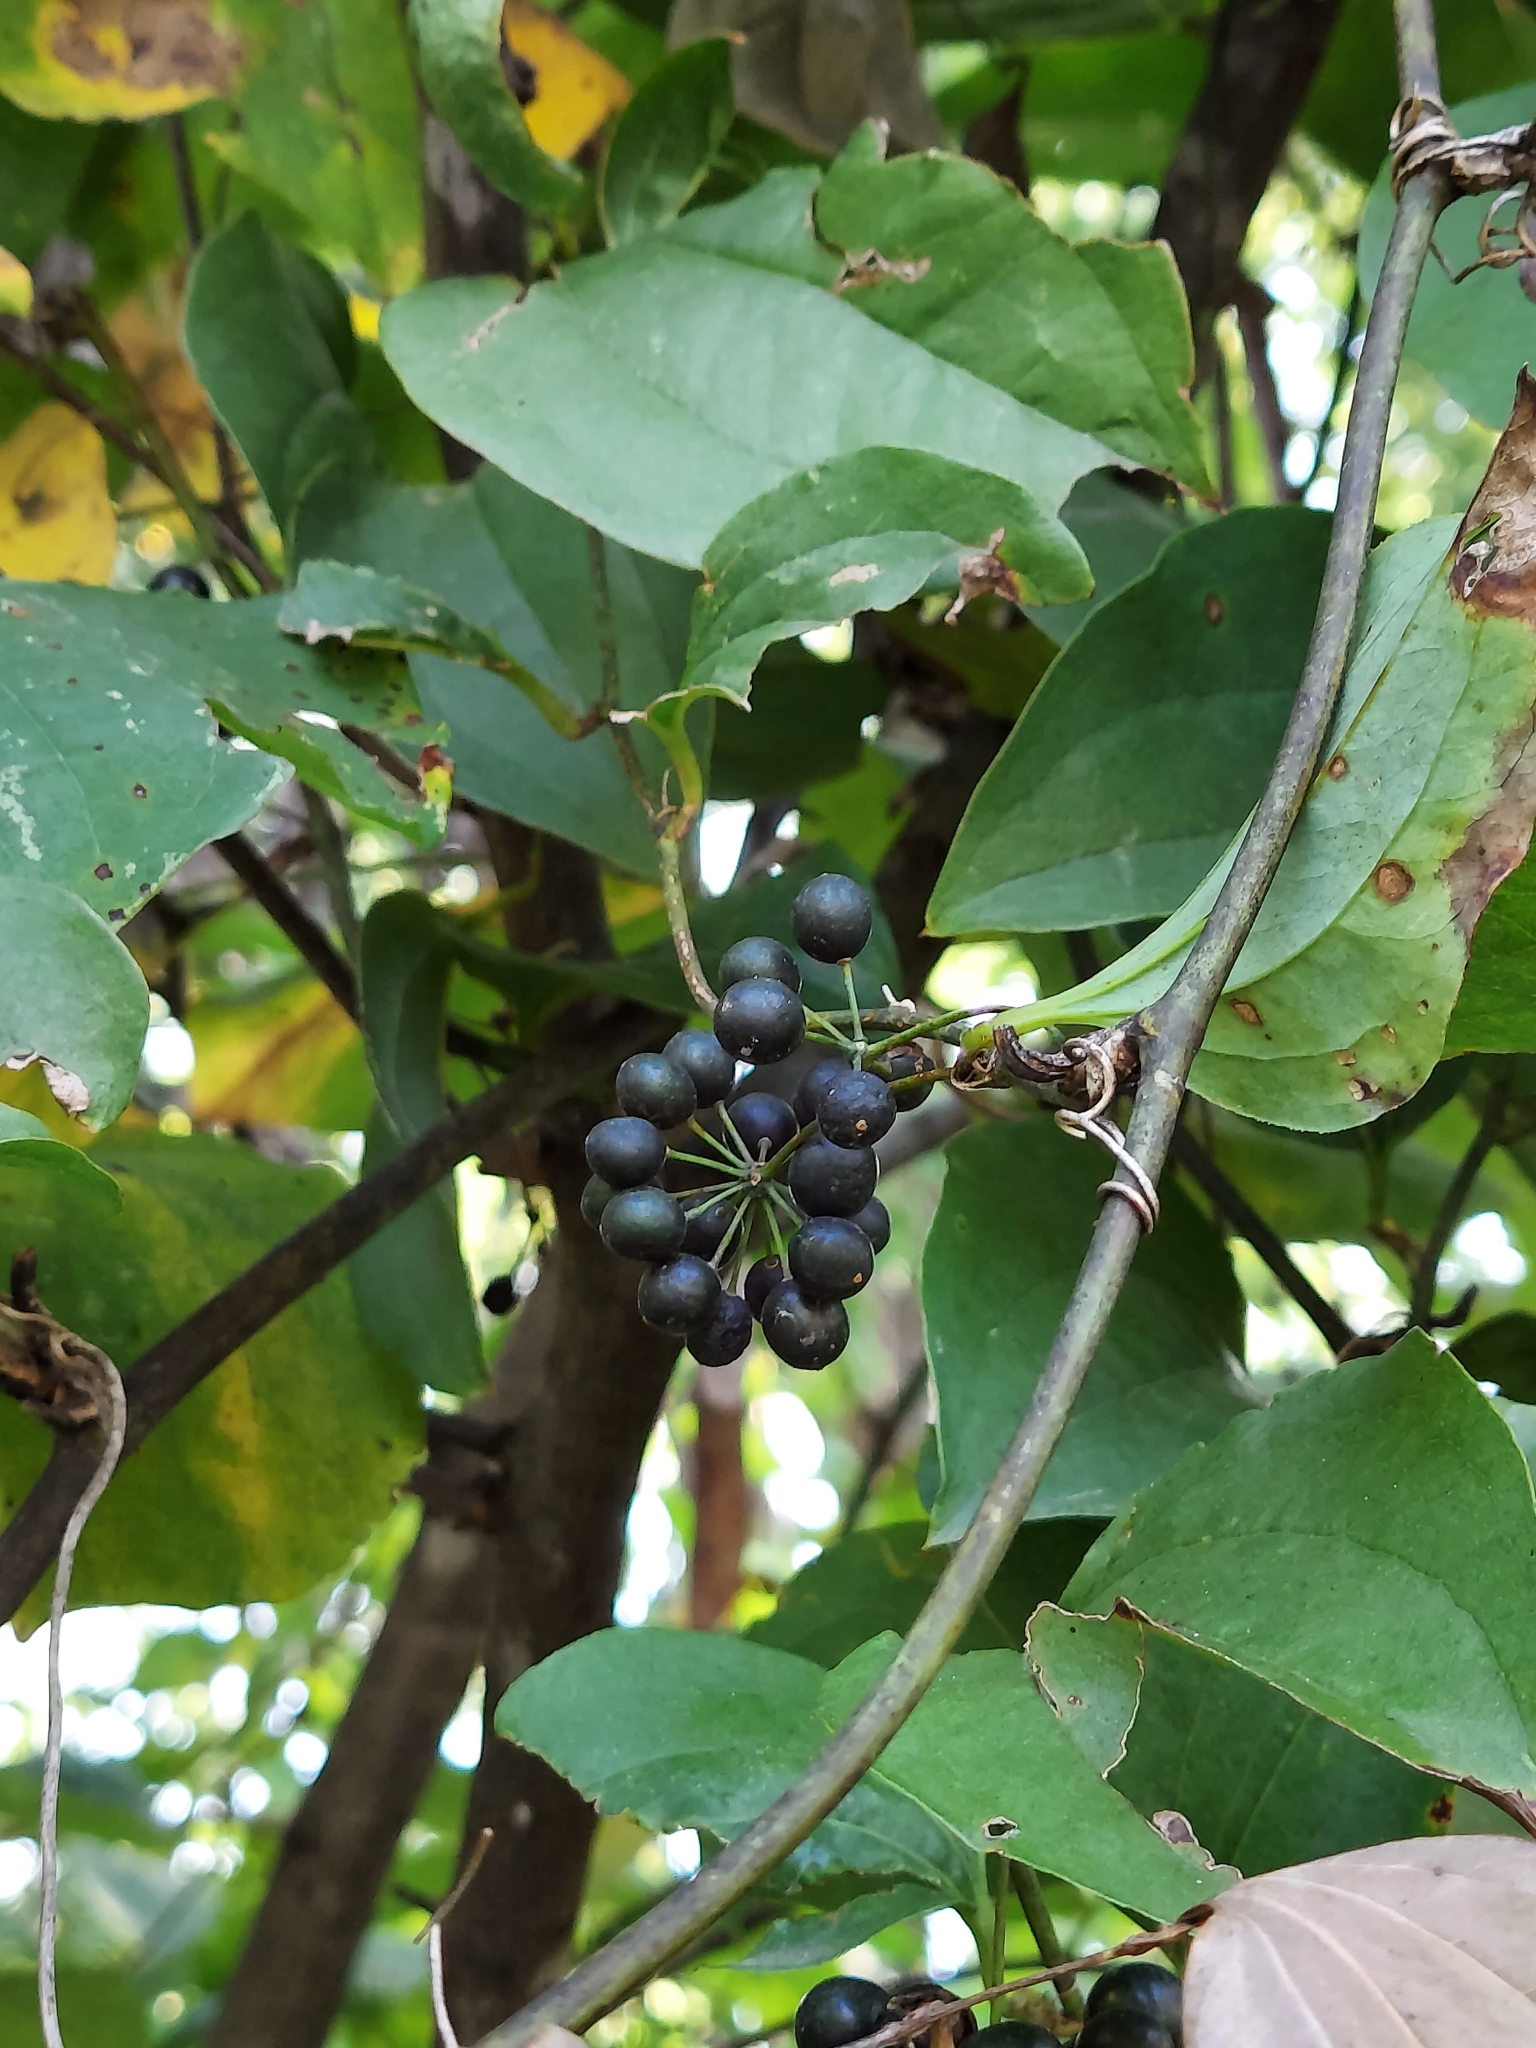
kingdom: Plantae
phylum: Tracheophyta
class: Liliopsida
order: Liliales
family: Smilacaceae
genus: Smilax
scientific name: Smilax tamnoides
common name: Hellfetter
